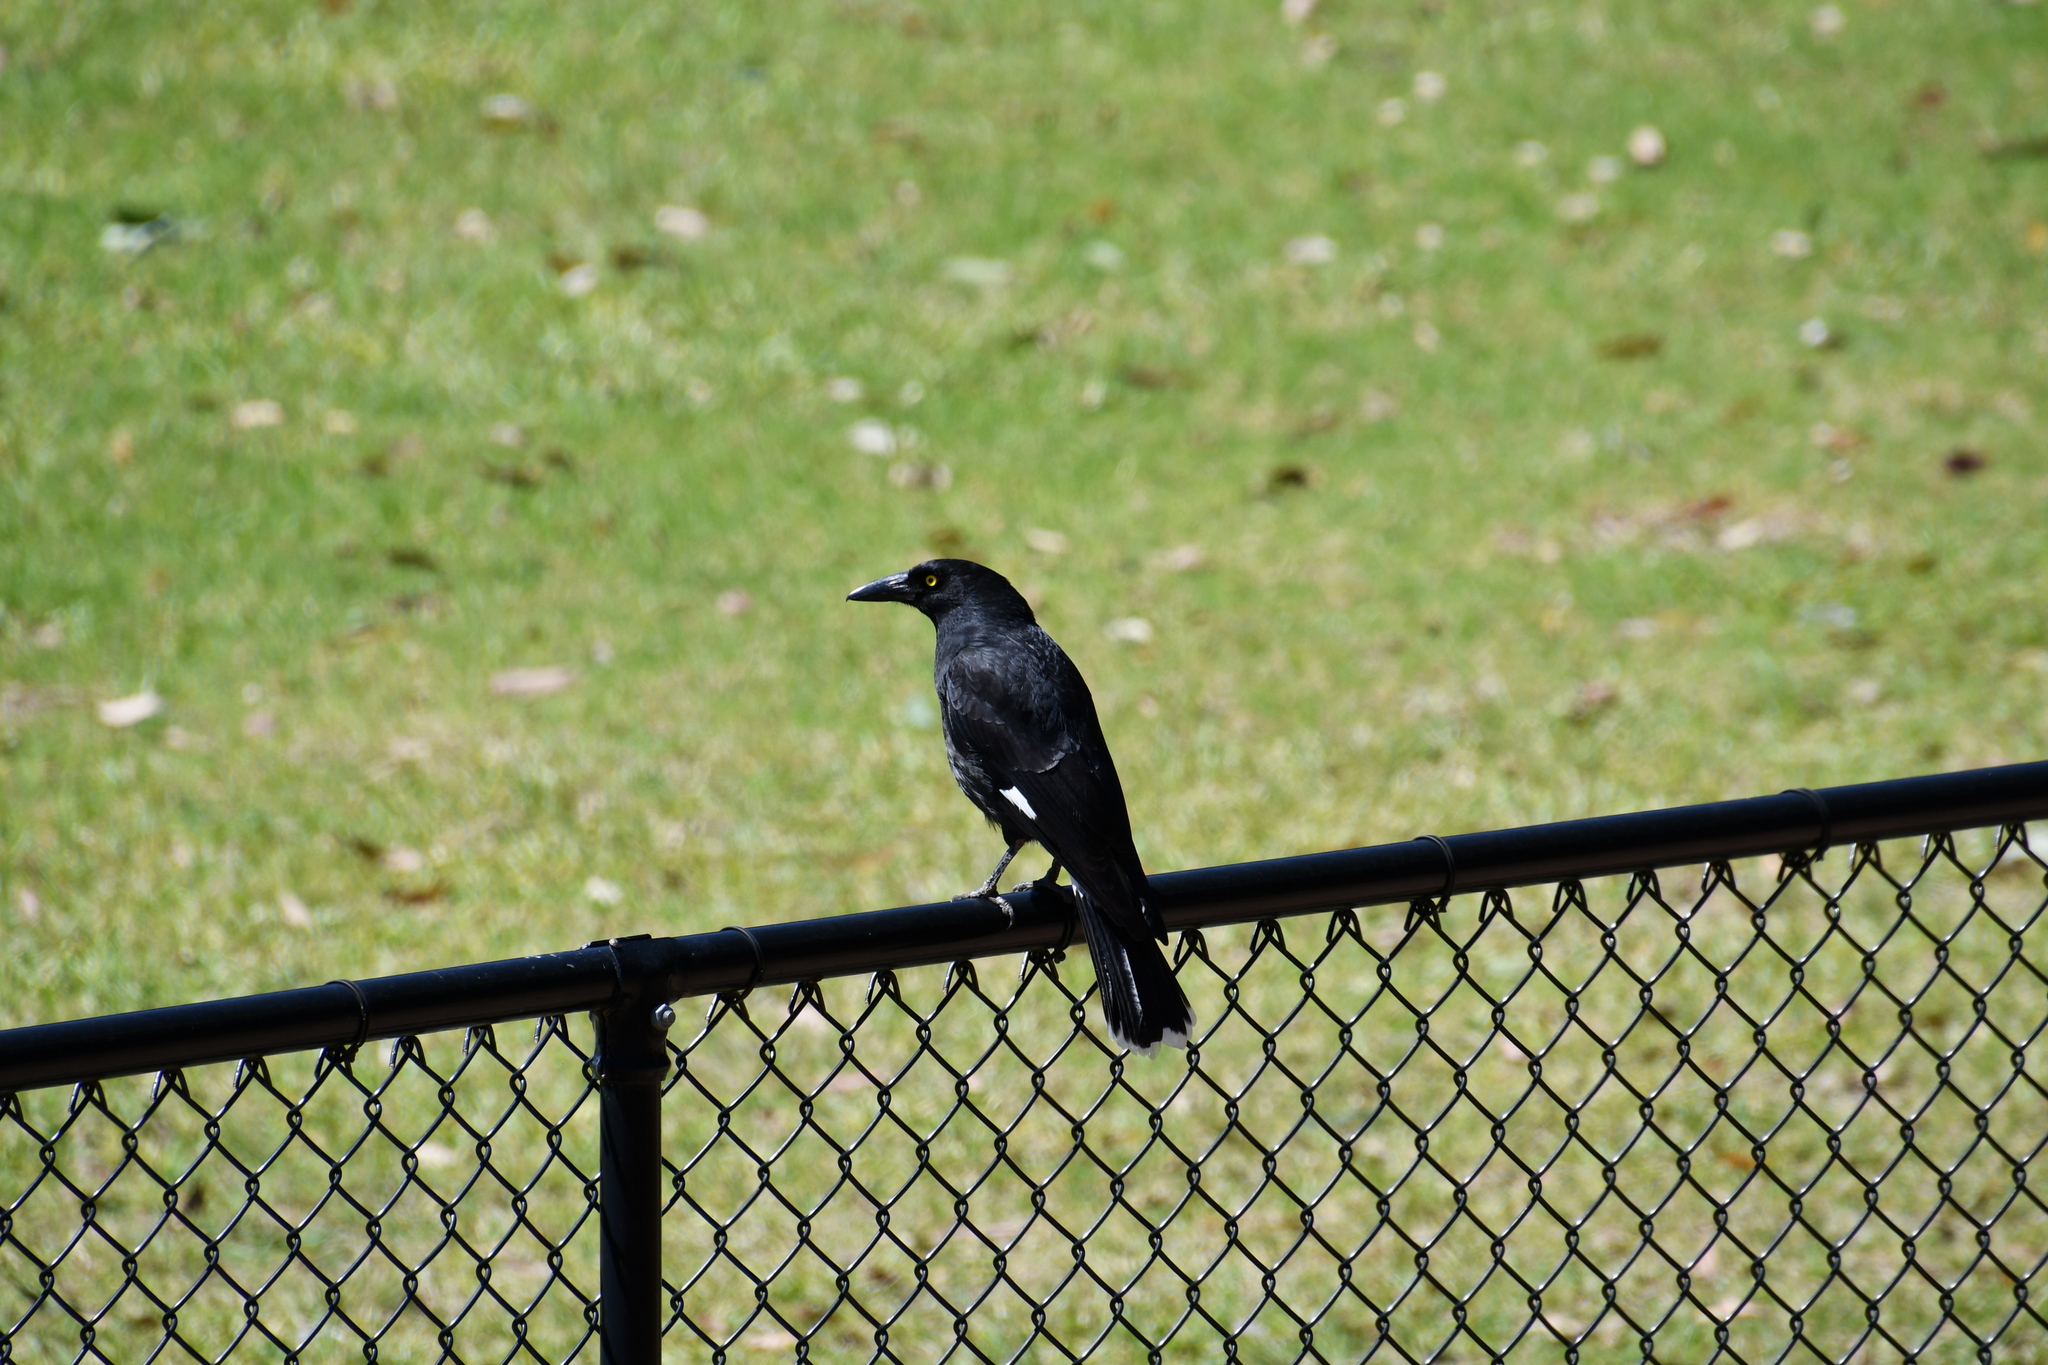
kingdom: Animalia
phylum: Chordata
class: Aves
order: Passeriformes
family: Cracticidae
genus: Strepera
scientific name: Strepera graculina
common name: Pied currawong
